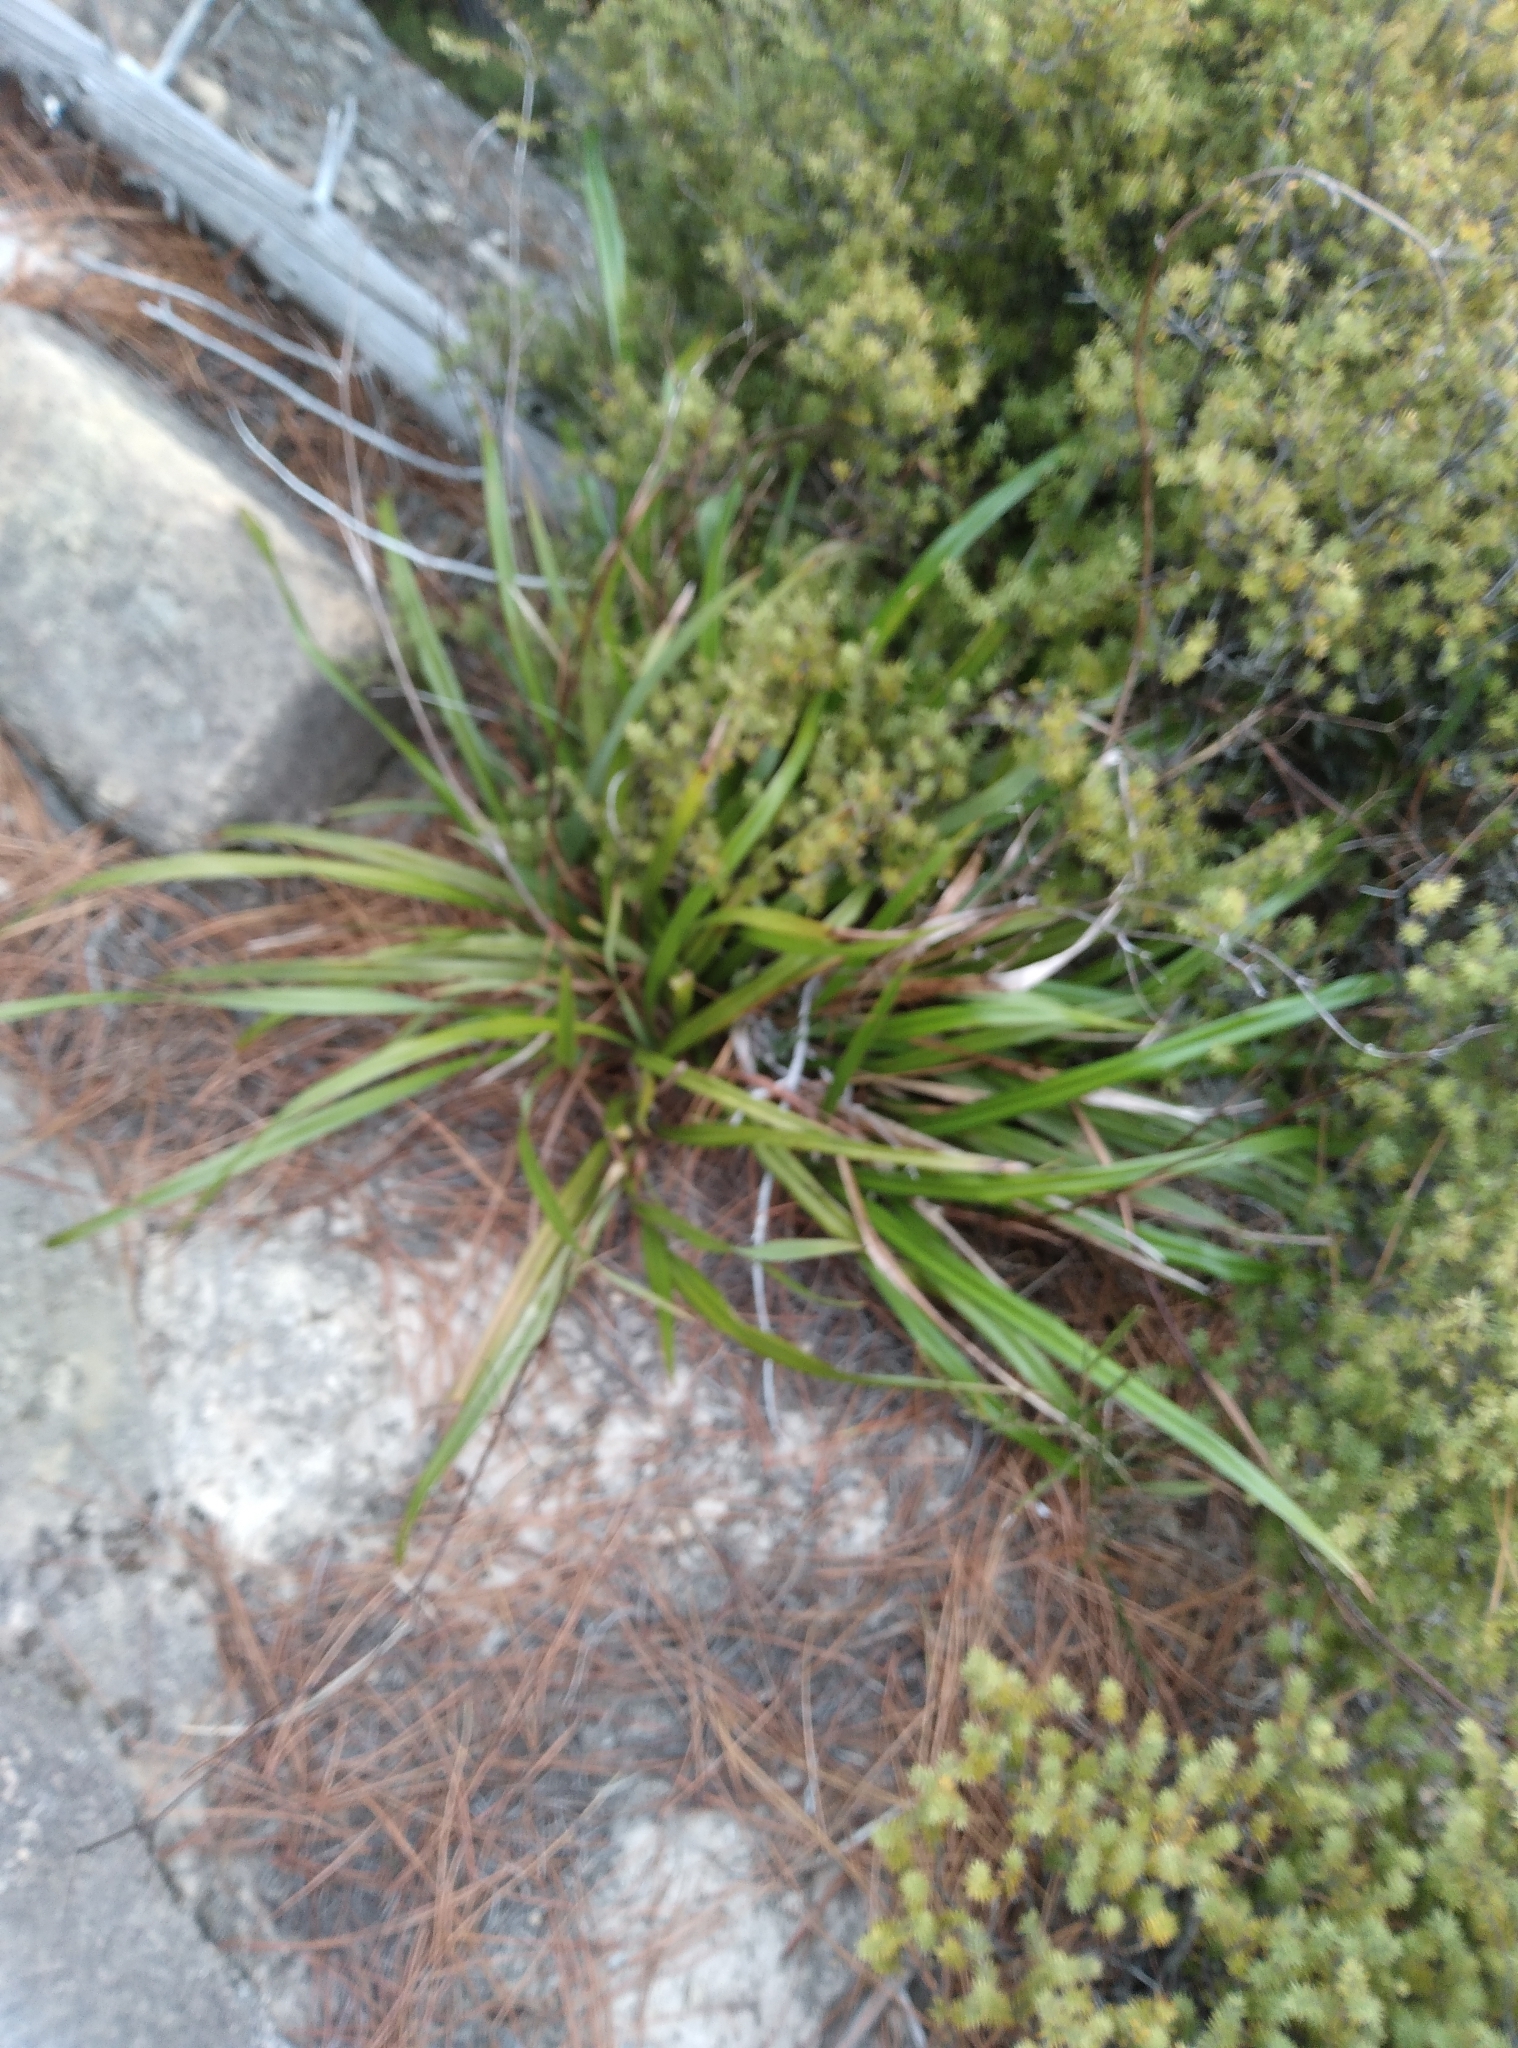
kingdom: Plantae
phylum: Tracheophyta
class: Liliopsida
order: Asparagales
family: Asphodelaceae
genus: Dianella
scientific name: Dianella nigra
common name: New zealand-blueberry
